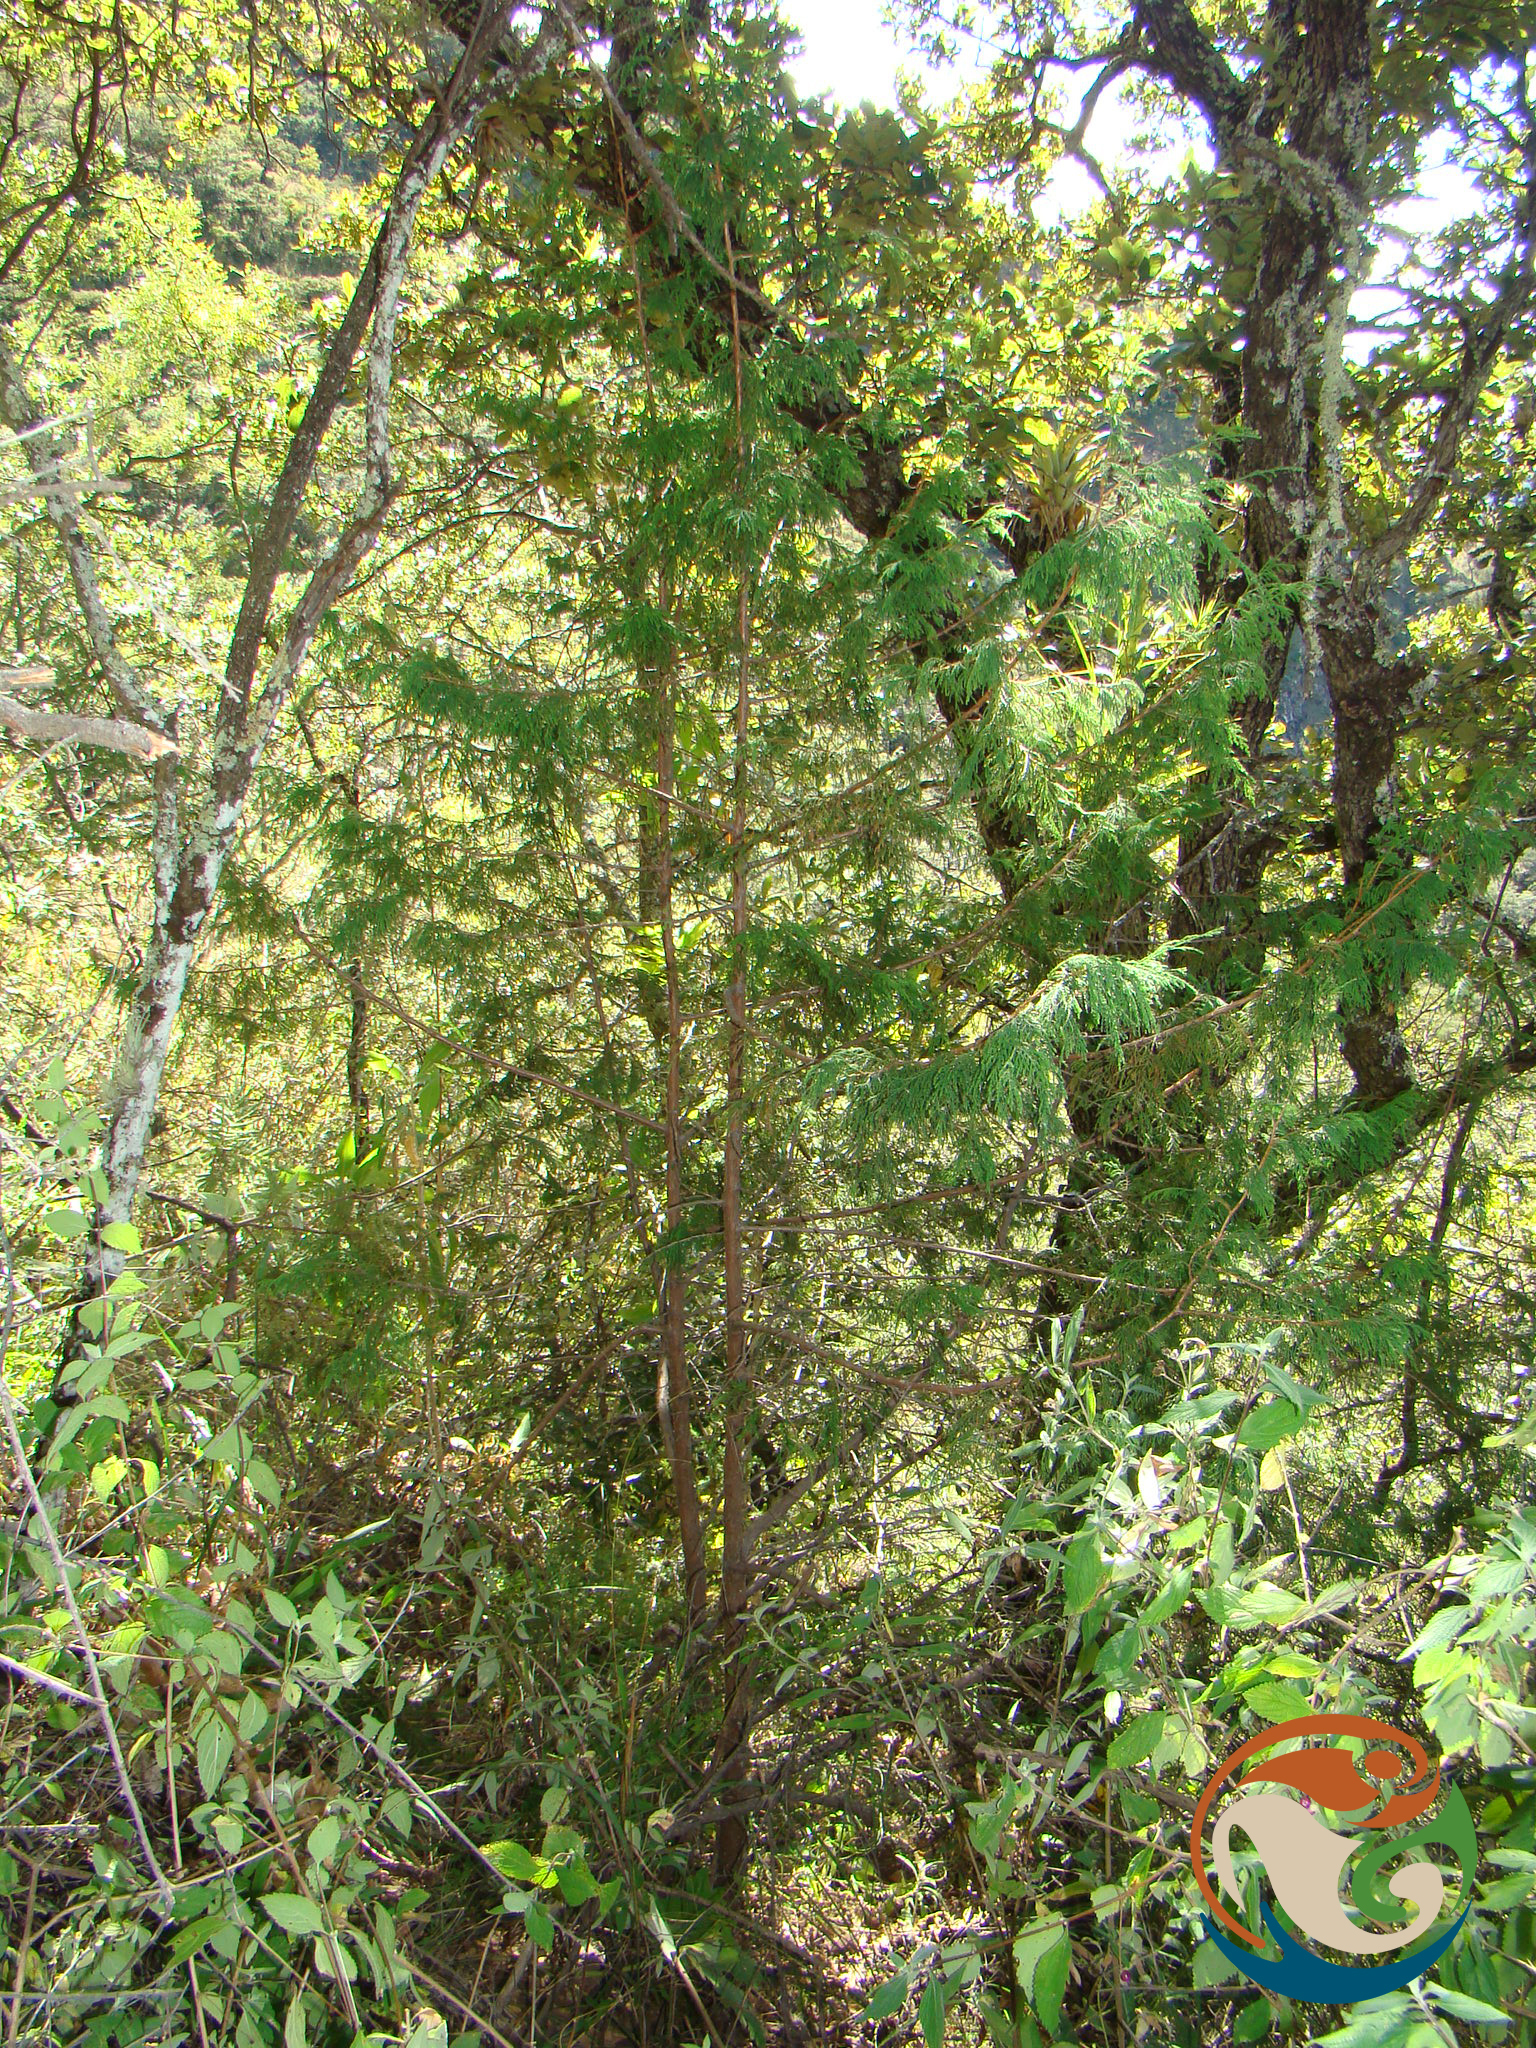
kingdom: Plantae
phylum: Tracheophyta
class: Pinopsida
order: Pinales
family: Cupressaceae
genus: Juniperus
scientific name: Juniperus flaccida
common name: Drooping juniper
